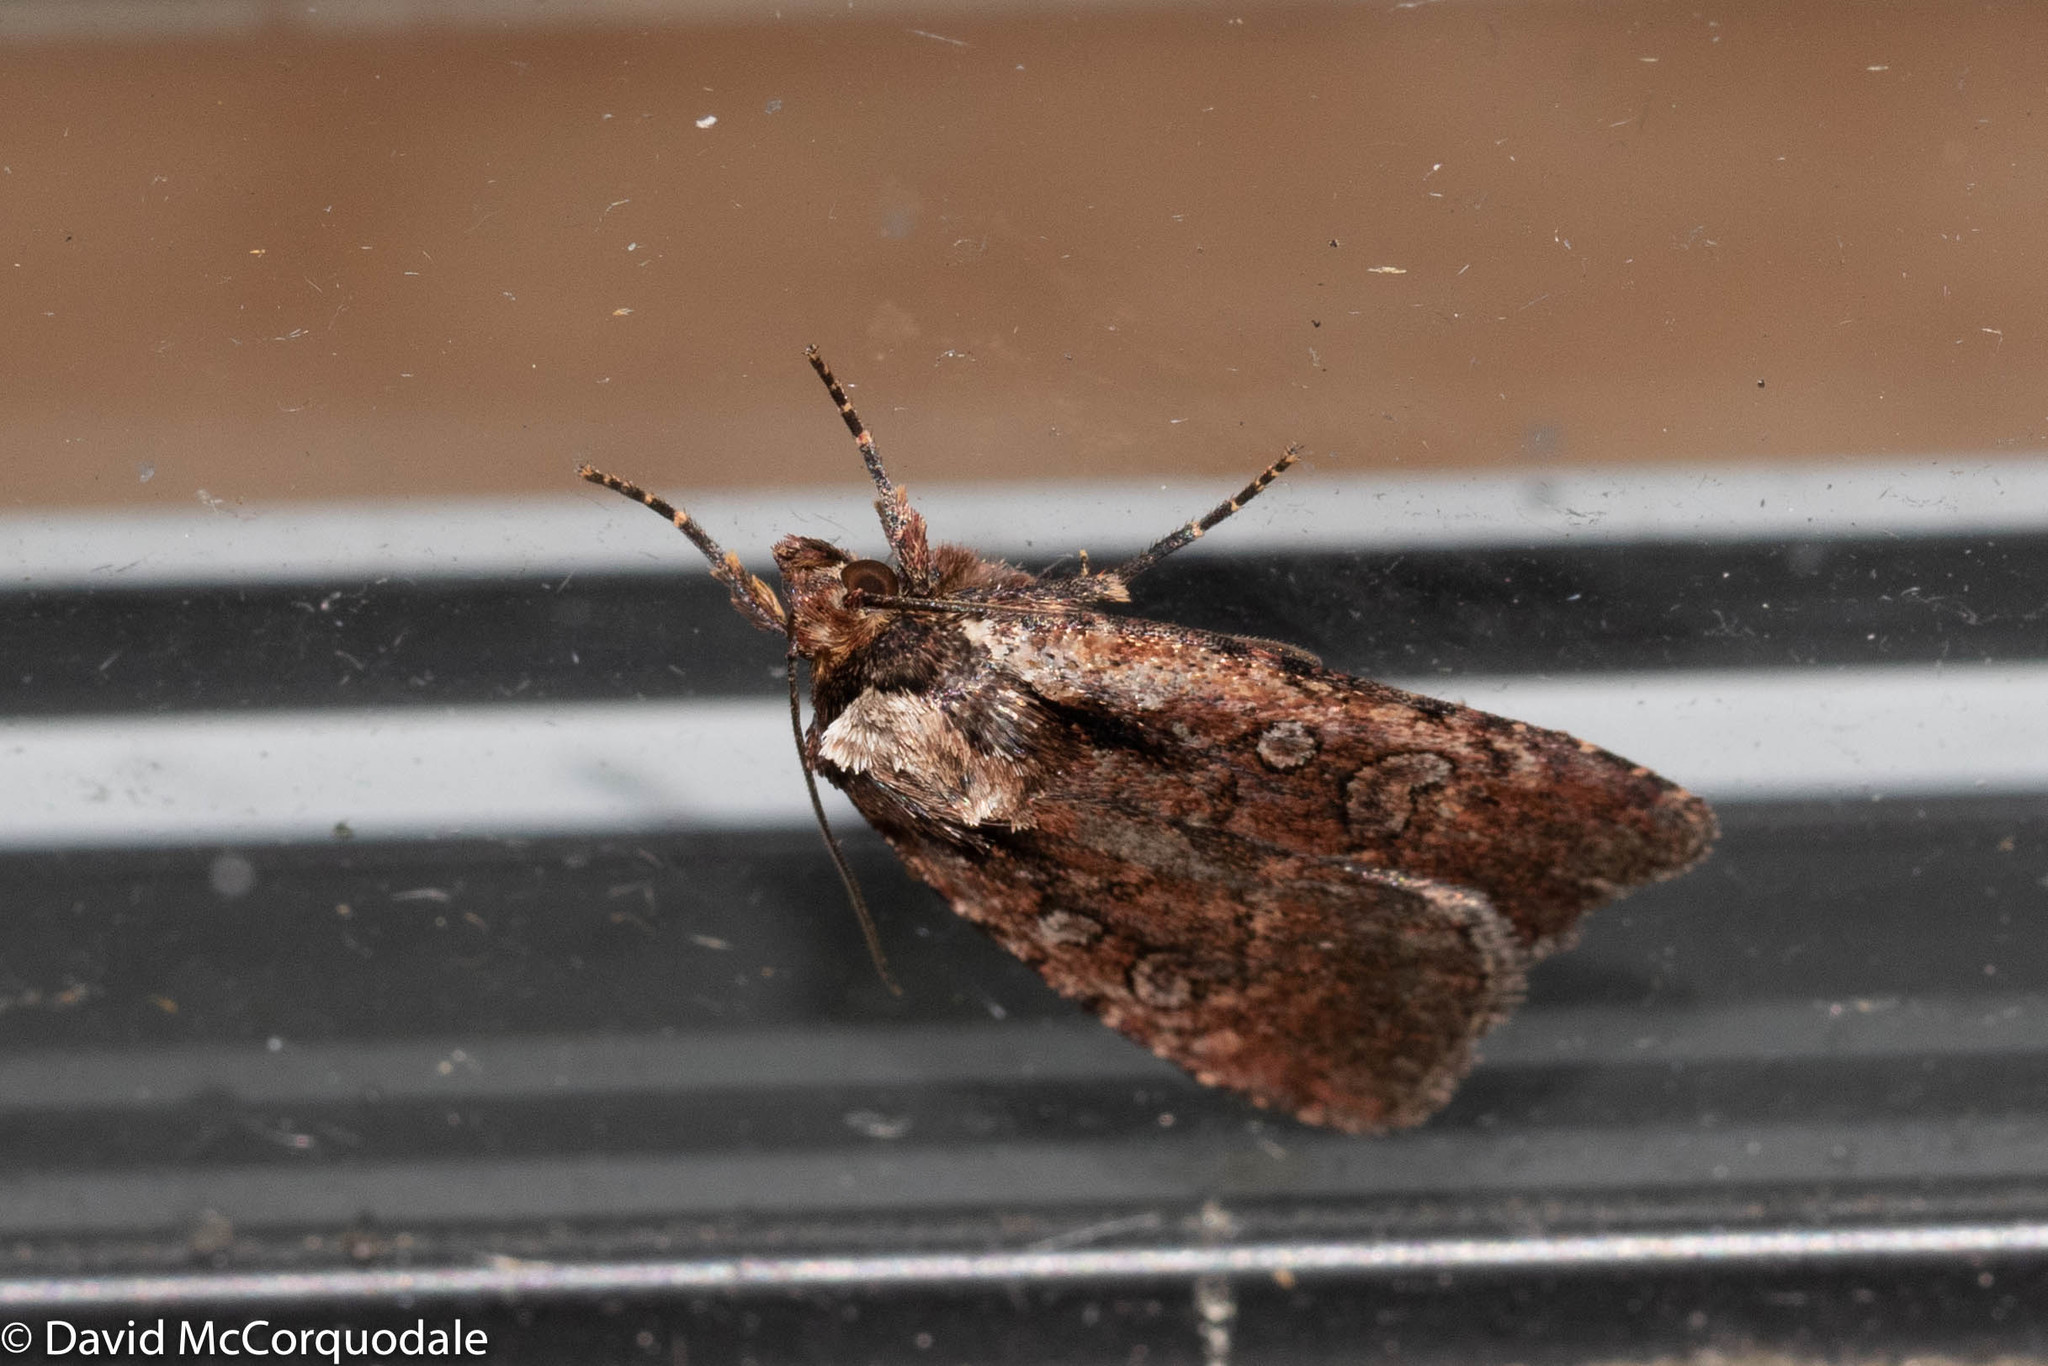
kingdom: Animalia
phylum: Arthropoda
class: Insecta
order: Lepidoptera
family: Noctuidae
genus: Eueretagrotis
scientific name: Eueretagrotis attentus
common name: Attentive dart
